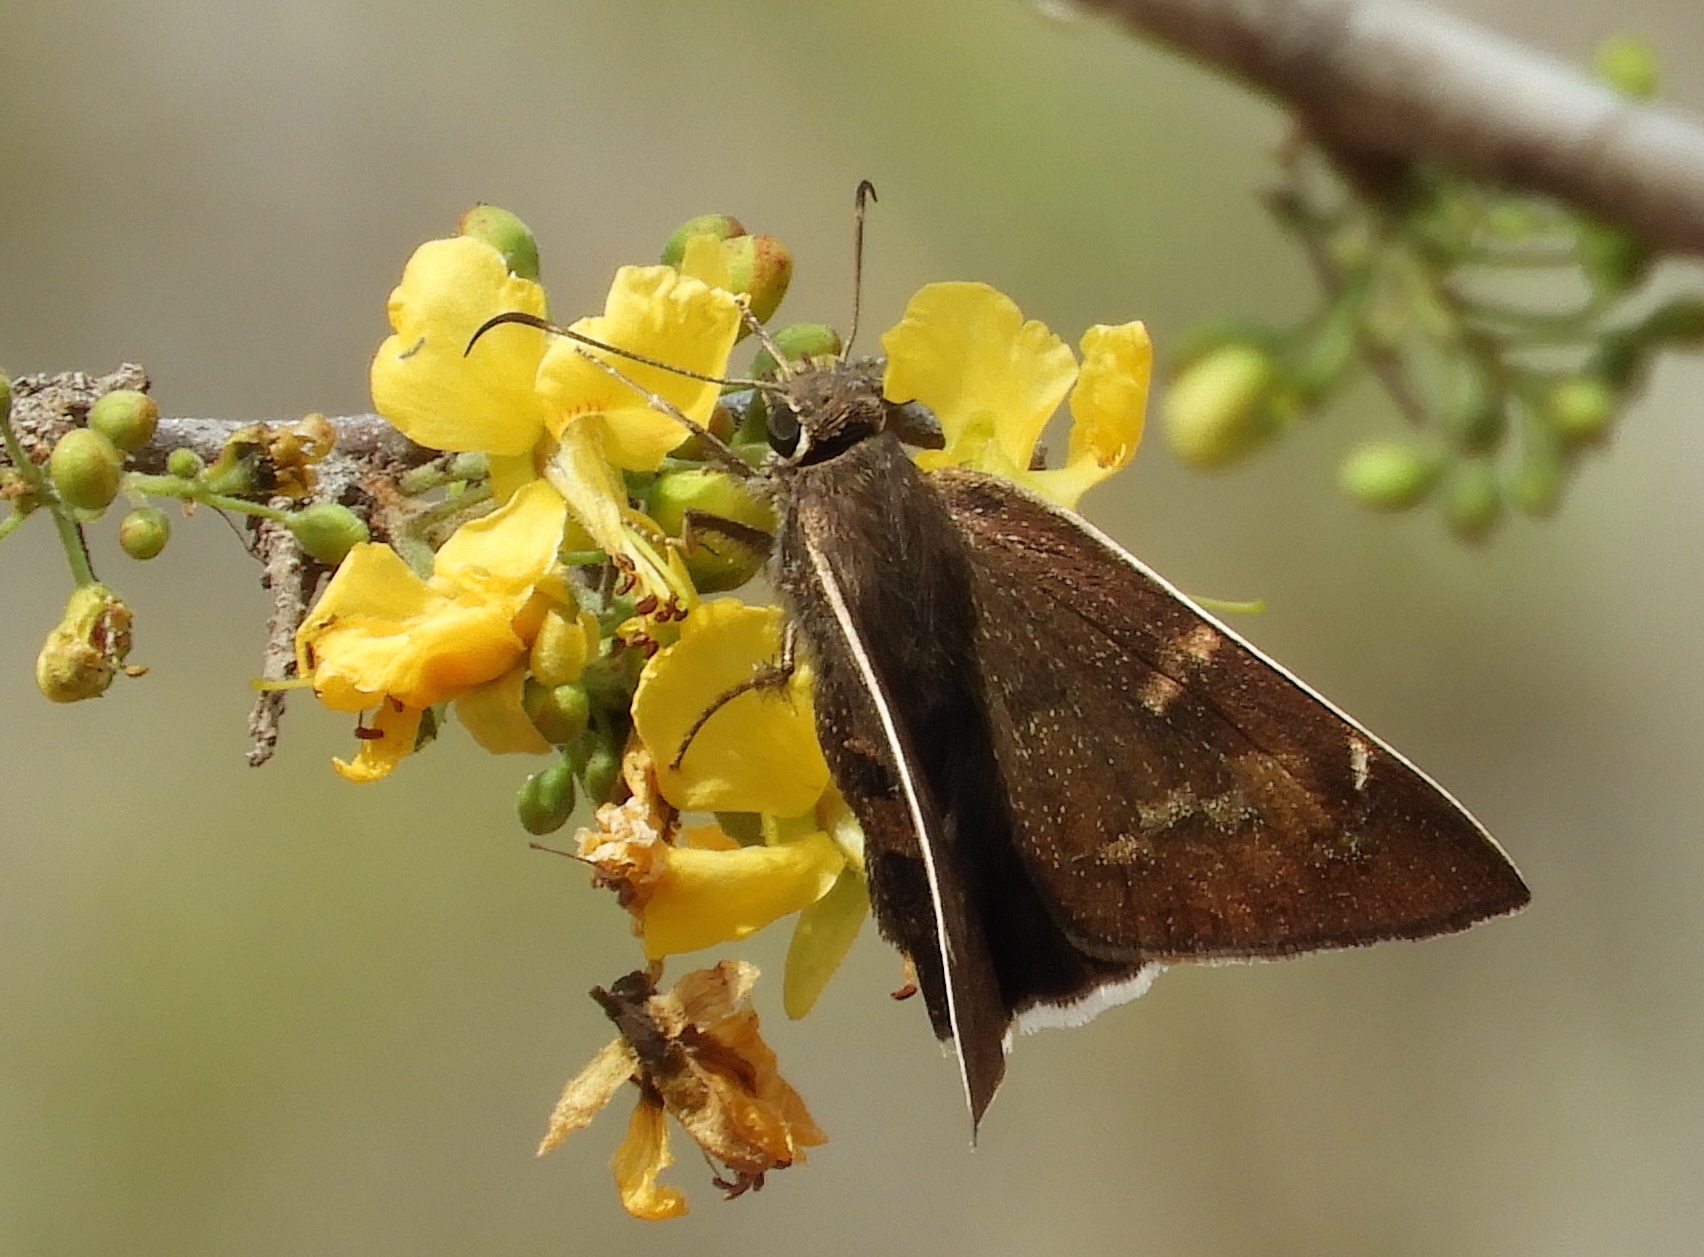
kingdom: Animalia
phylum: Arthropoda
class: Insecta
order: Lepidoptera
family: Hesperiidae
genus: Achalarus
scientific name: Achalarus Murgaria jalapus
